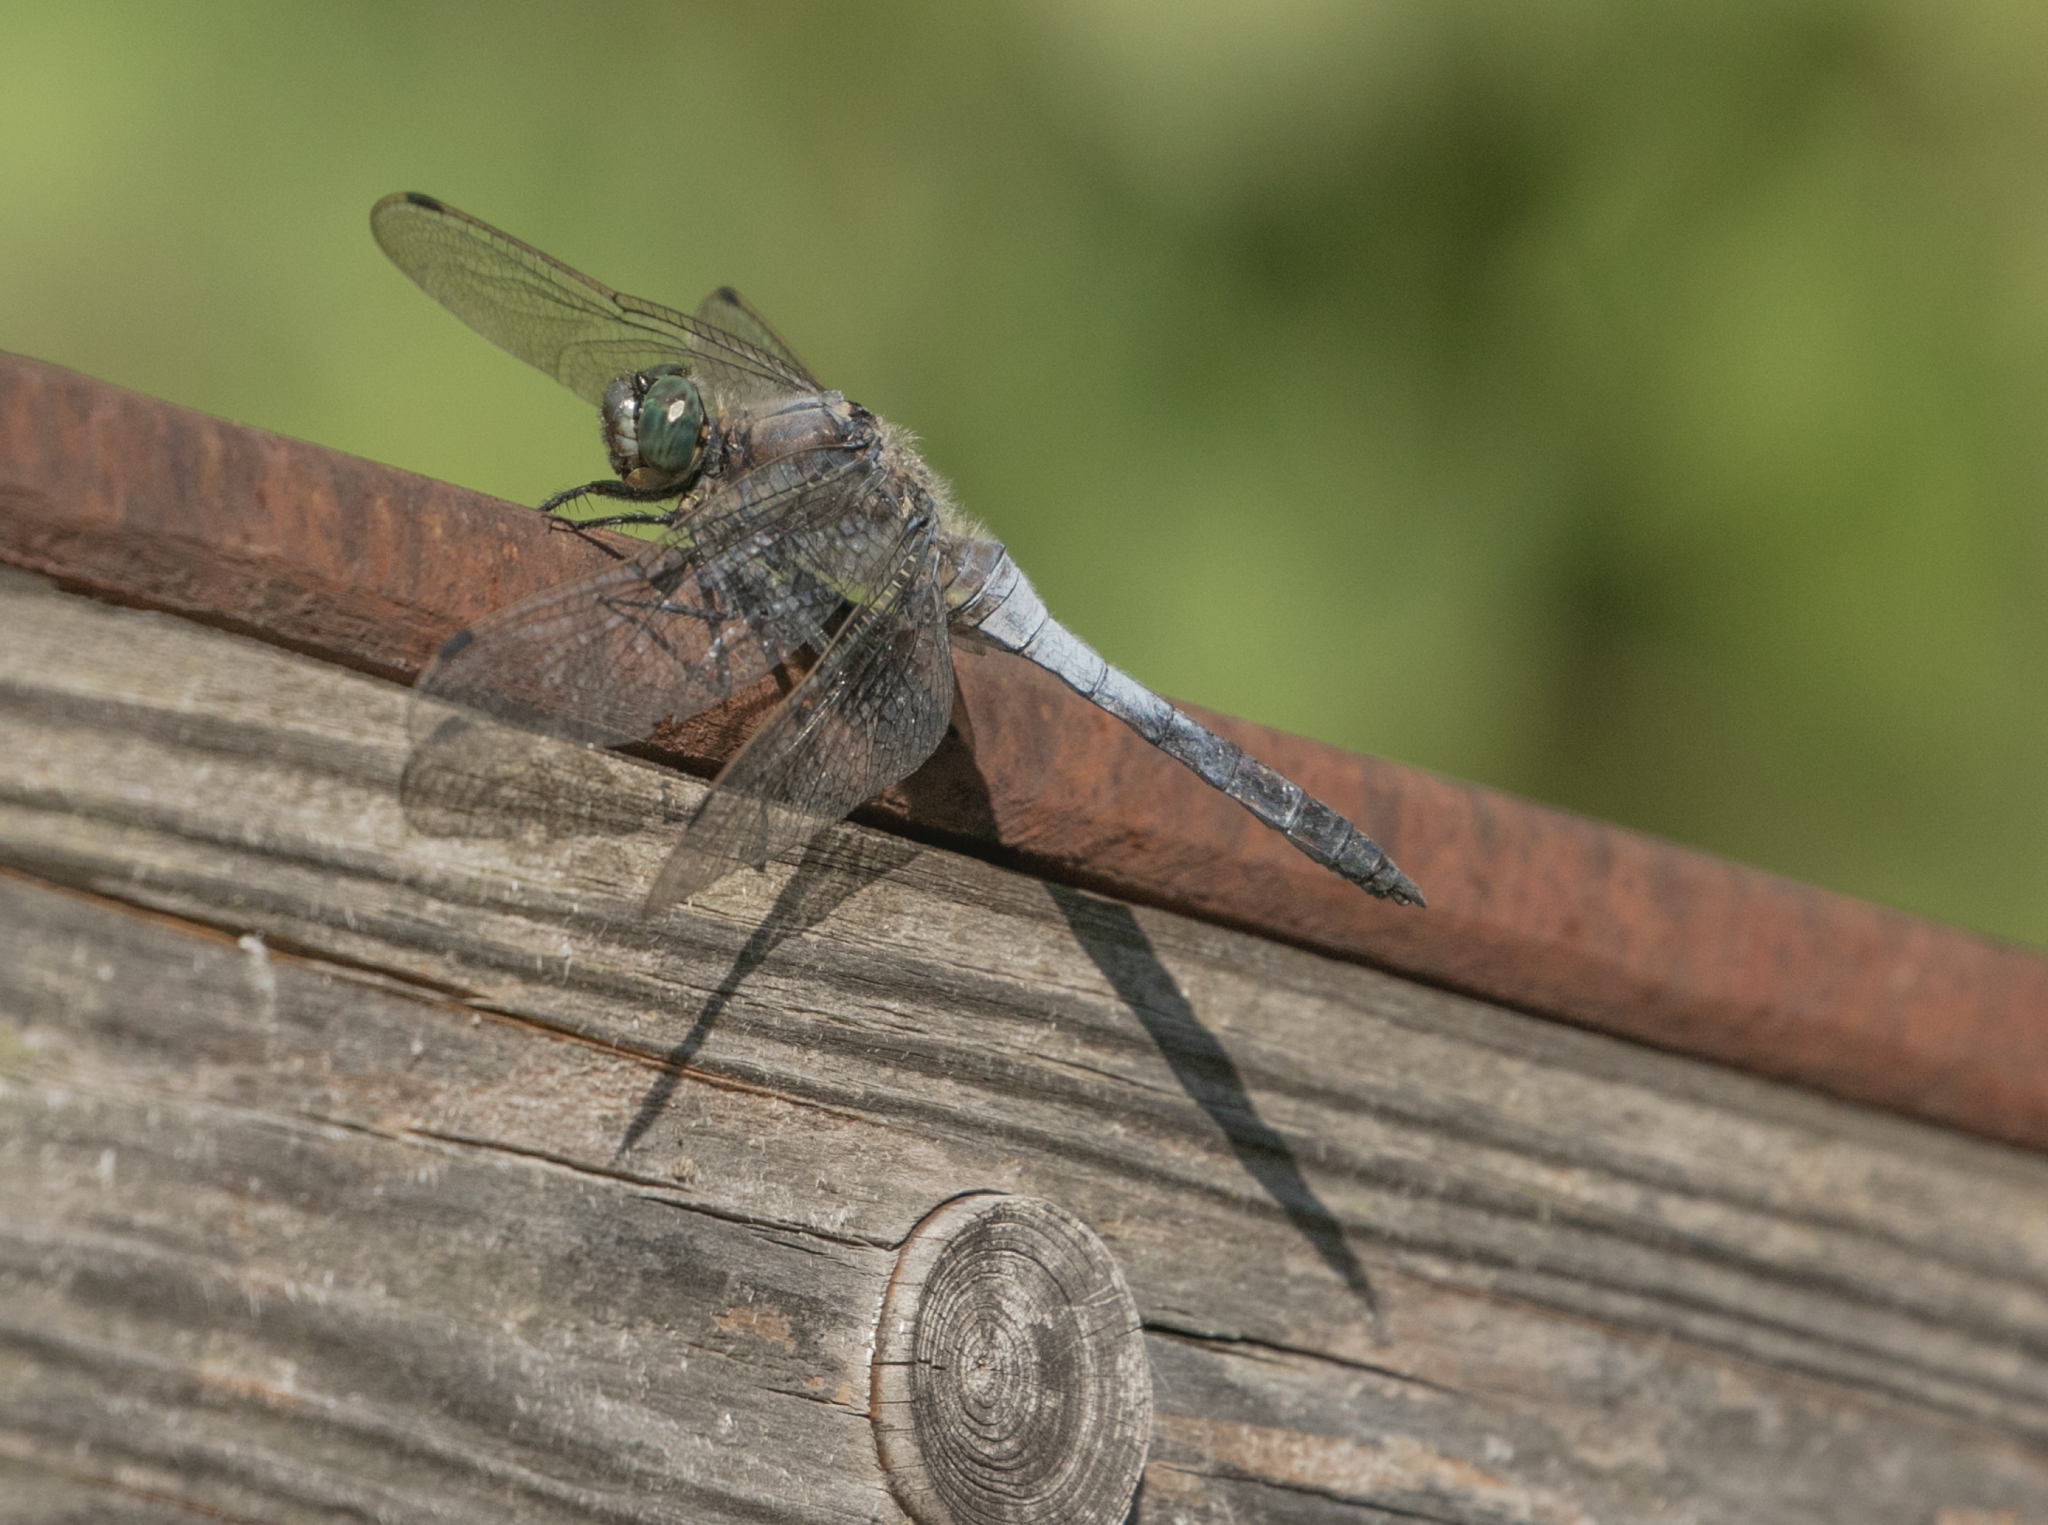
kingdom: Animalia
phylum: Arthropoda
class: Insecta
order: Odonata
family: Libellulidae
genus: Orthetrum
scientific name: Orthetrum cancellatum
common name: Black-tailed skimmer
